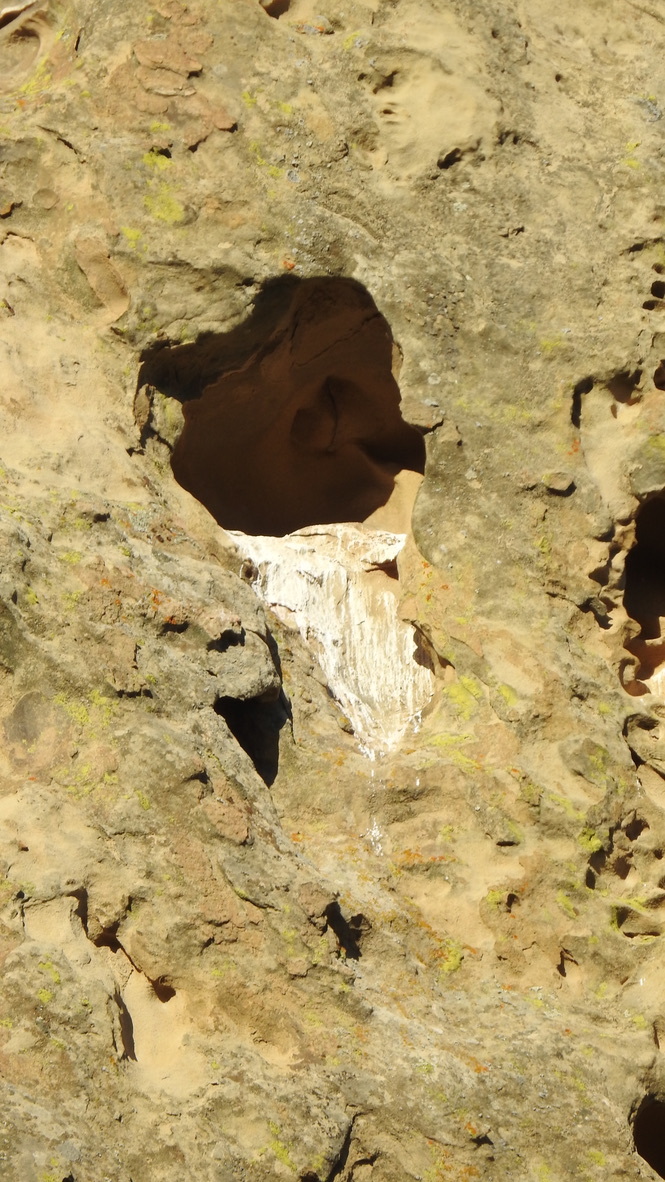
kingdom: Animalia
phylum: Chordata
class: Aves
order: Falconiformes
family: Falconidae
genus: Falco
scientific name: Falco peregrinus
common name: Peregrine falcon
